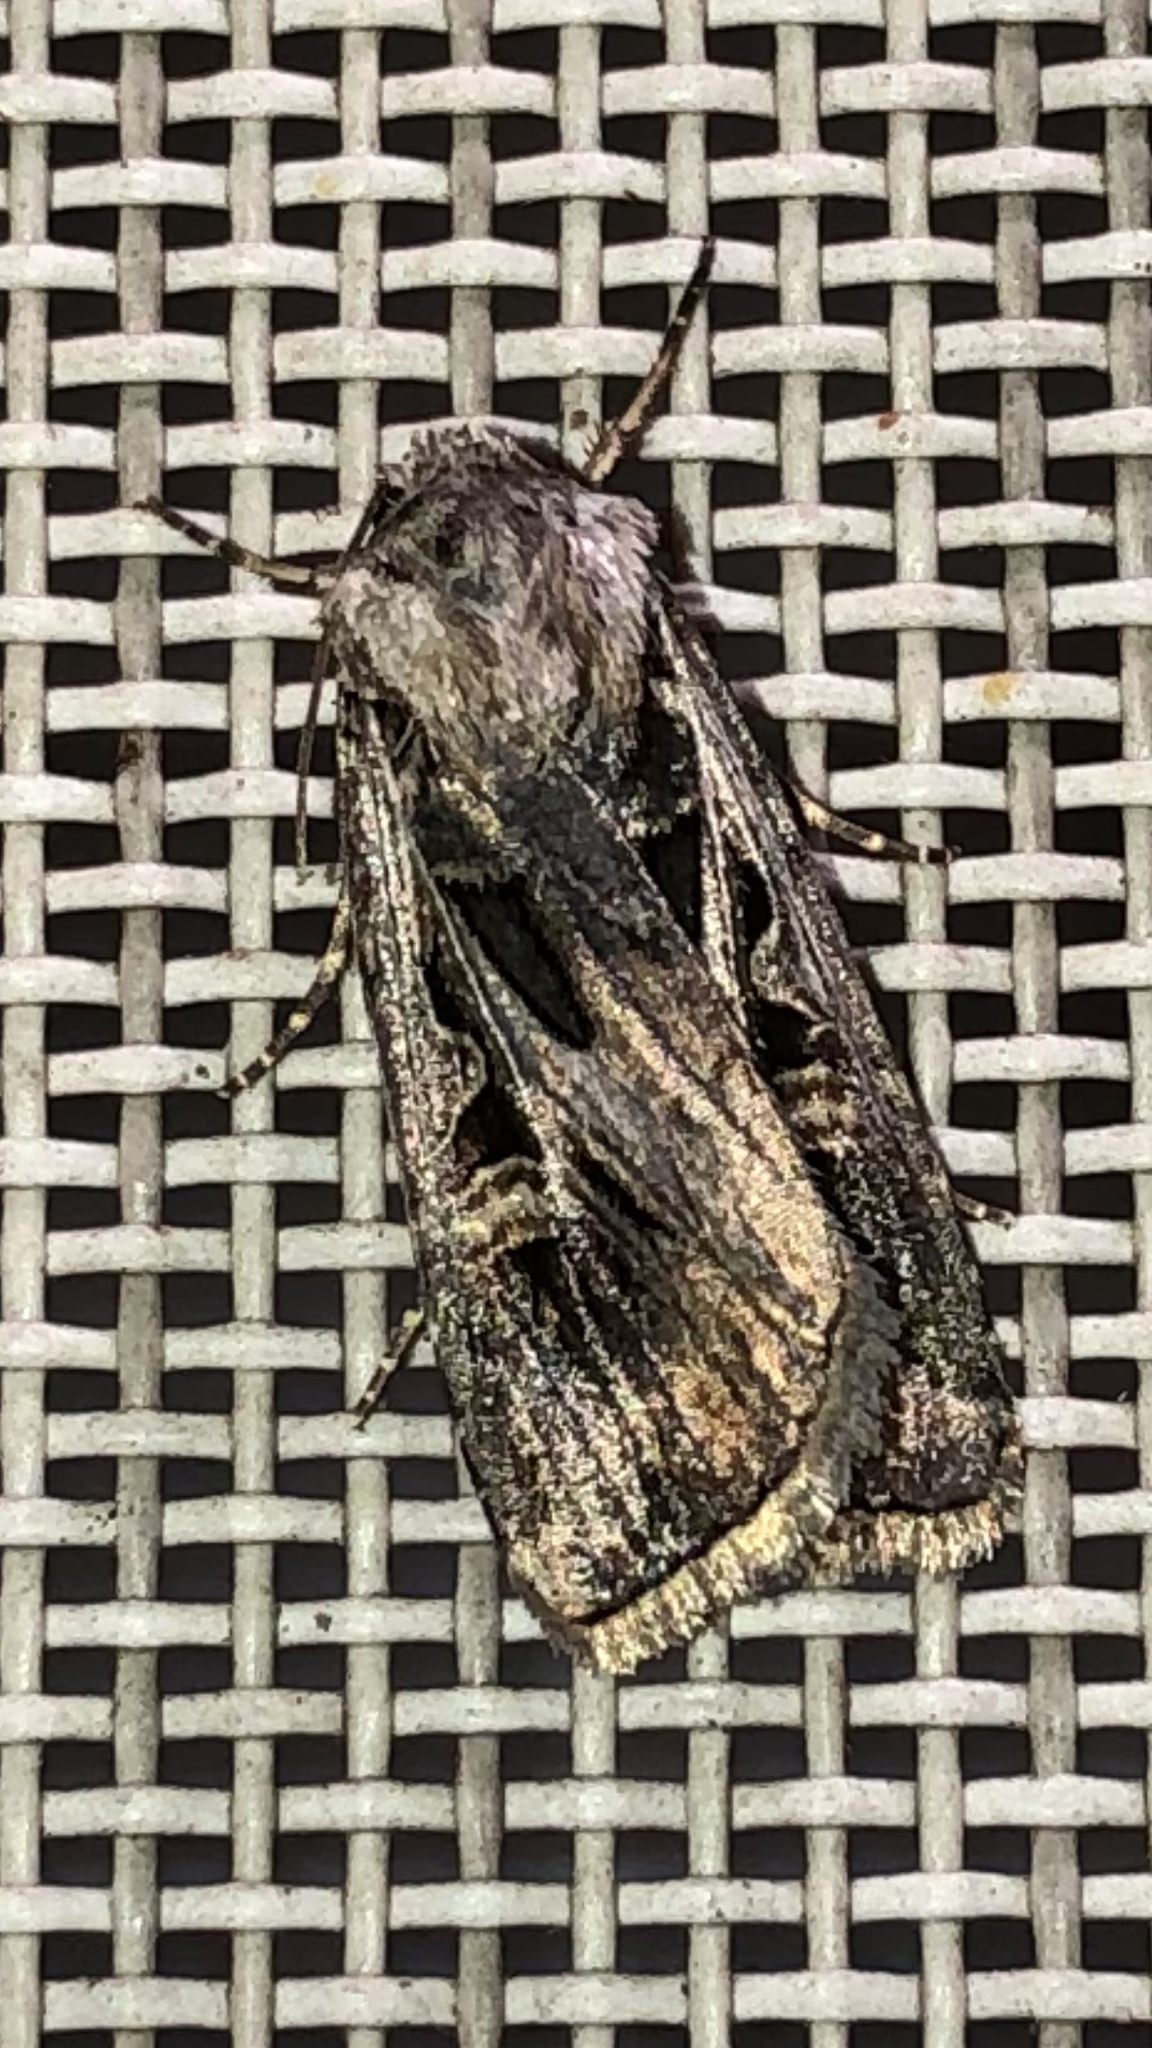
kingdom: Animalia
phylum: Arthropoda
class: Insecta
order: Lepidoptera
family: Noctuidae
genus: Feltia
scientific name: Feltia jaculifera
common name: Dingy cutworm moth
